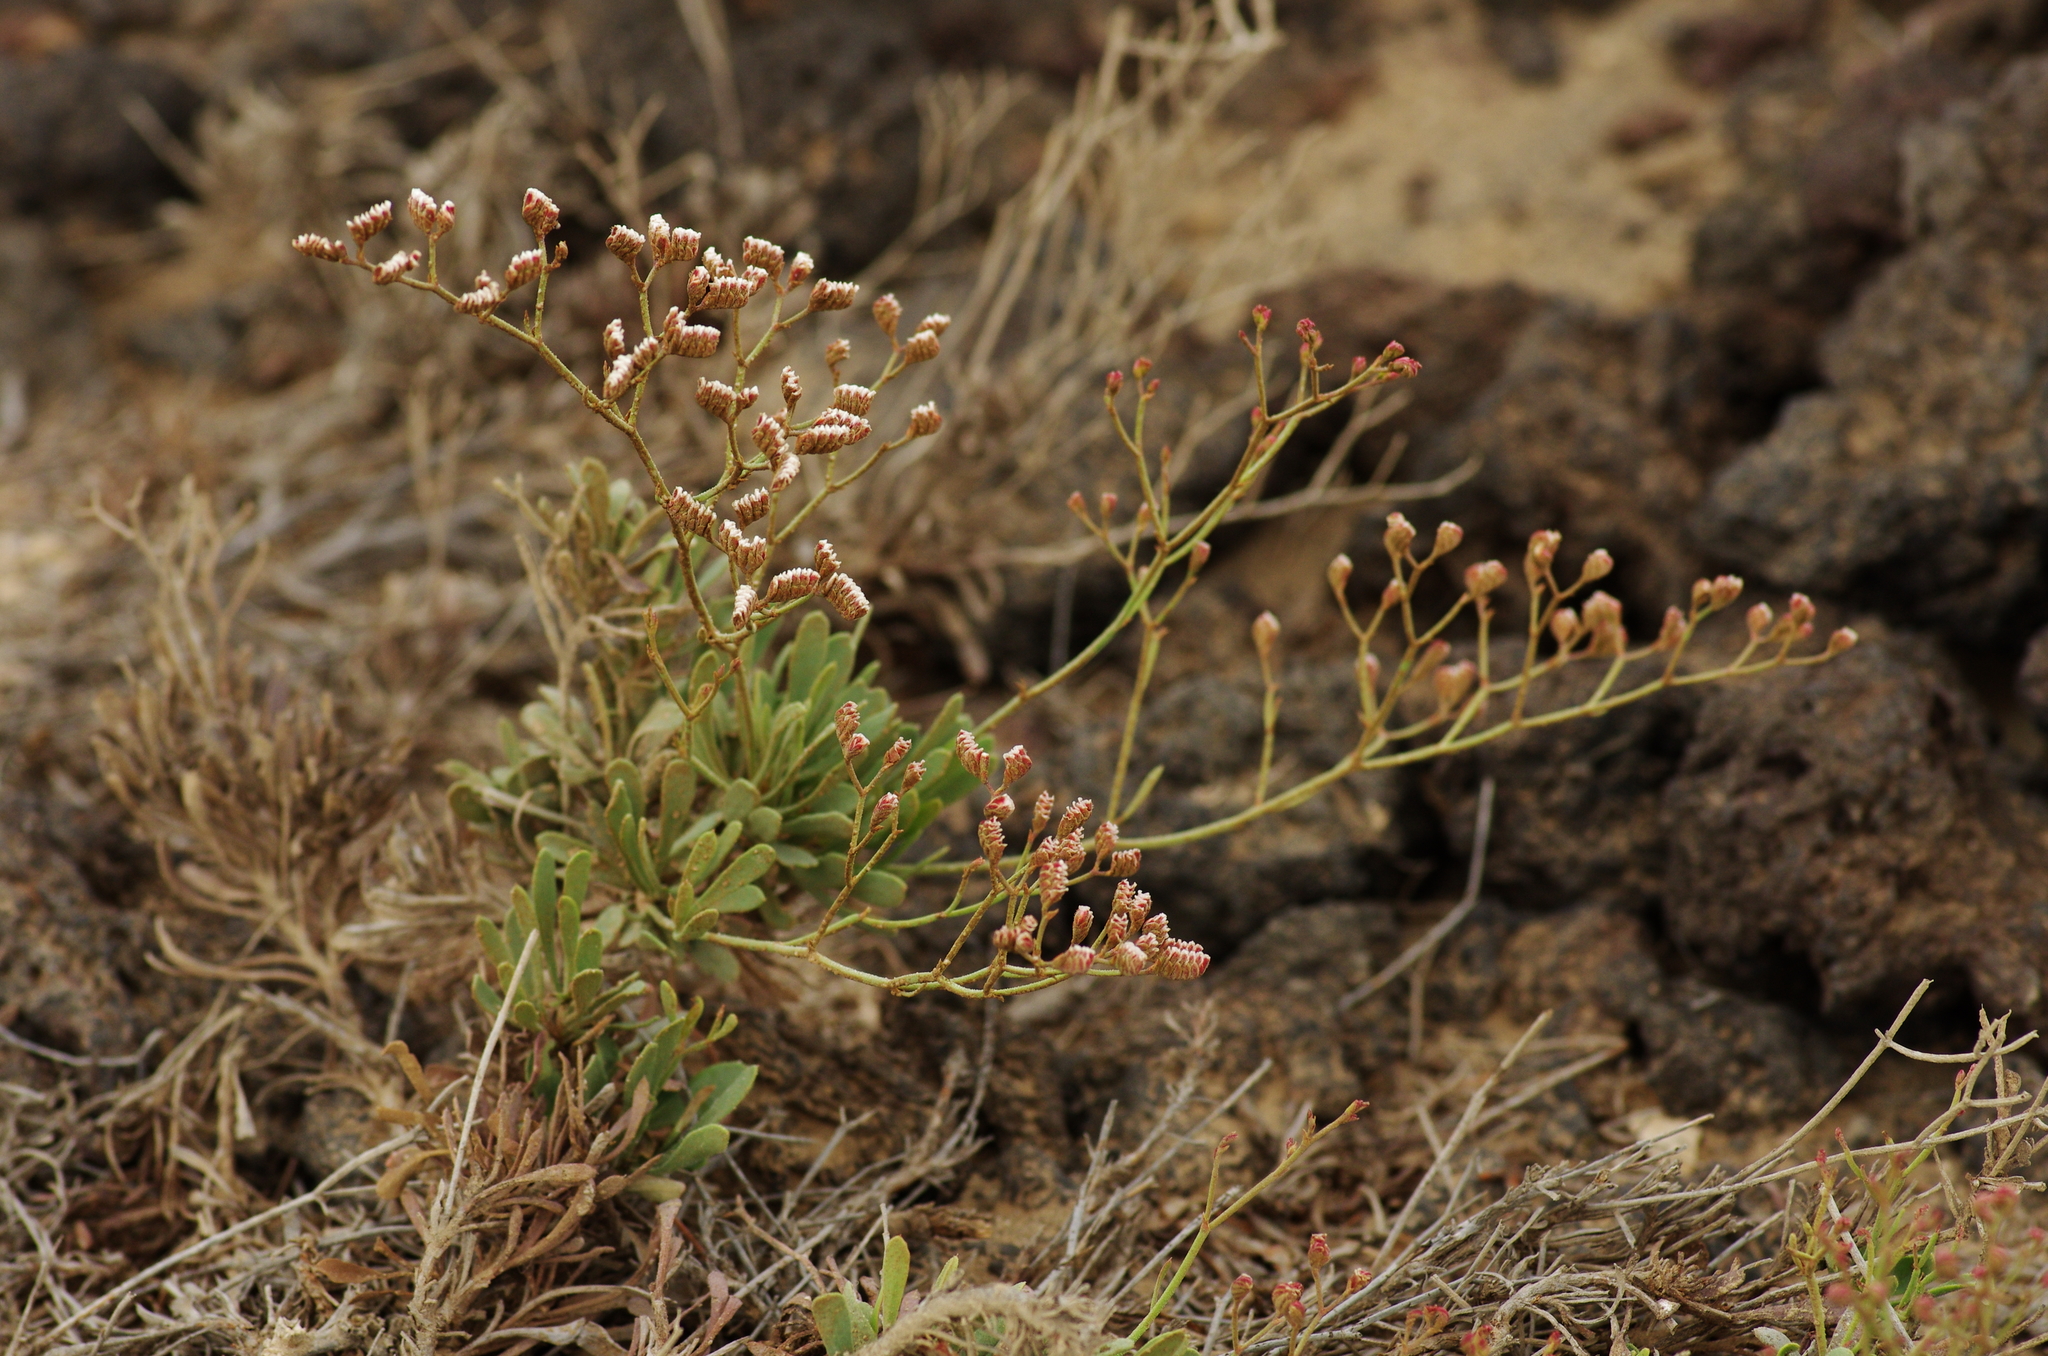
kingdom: Plantae
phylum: Tracheophyta
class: Magnoliopsida
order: Caryophyllales
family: Plumbaginaceae
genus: Limonium
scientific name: Limonium pectinatum
